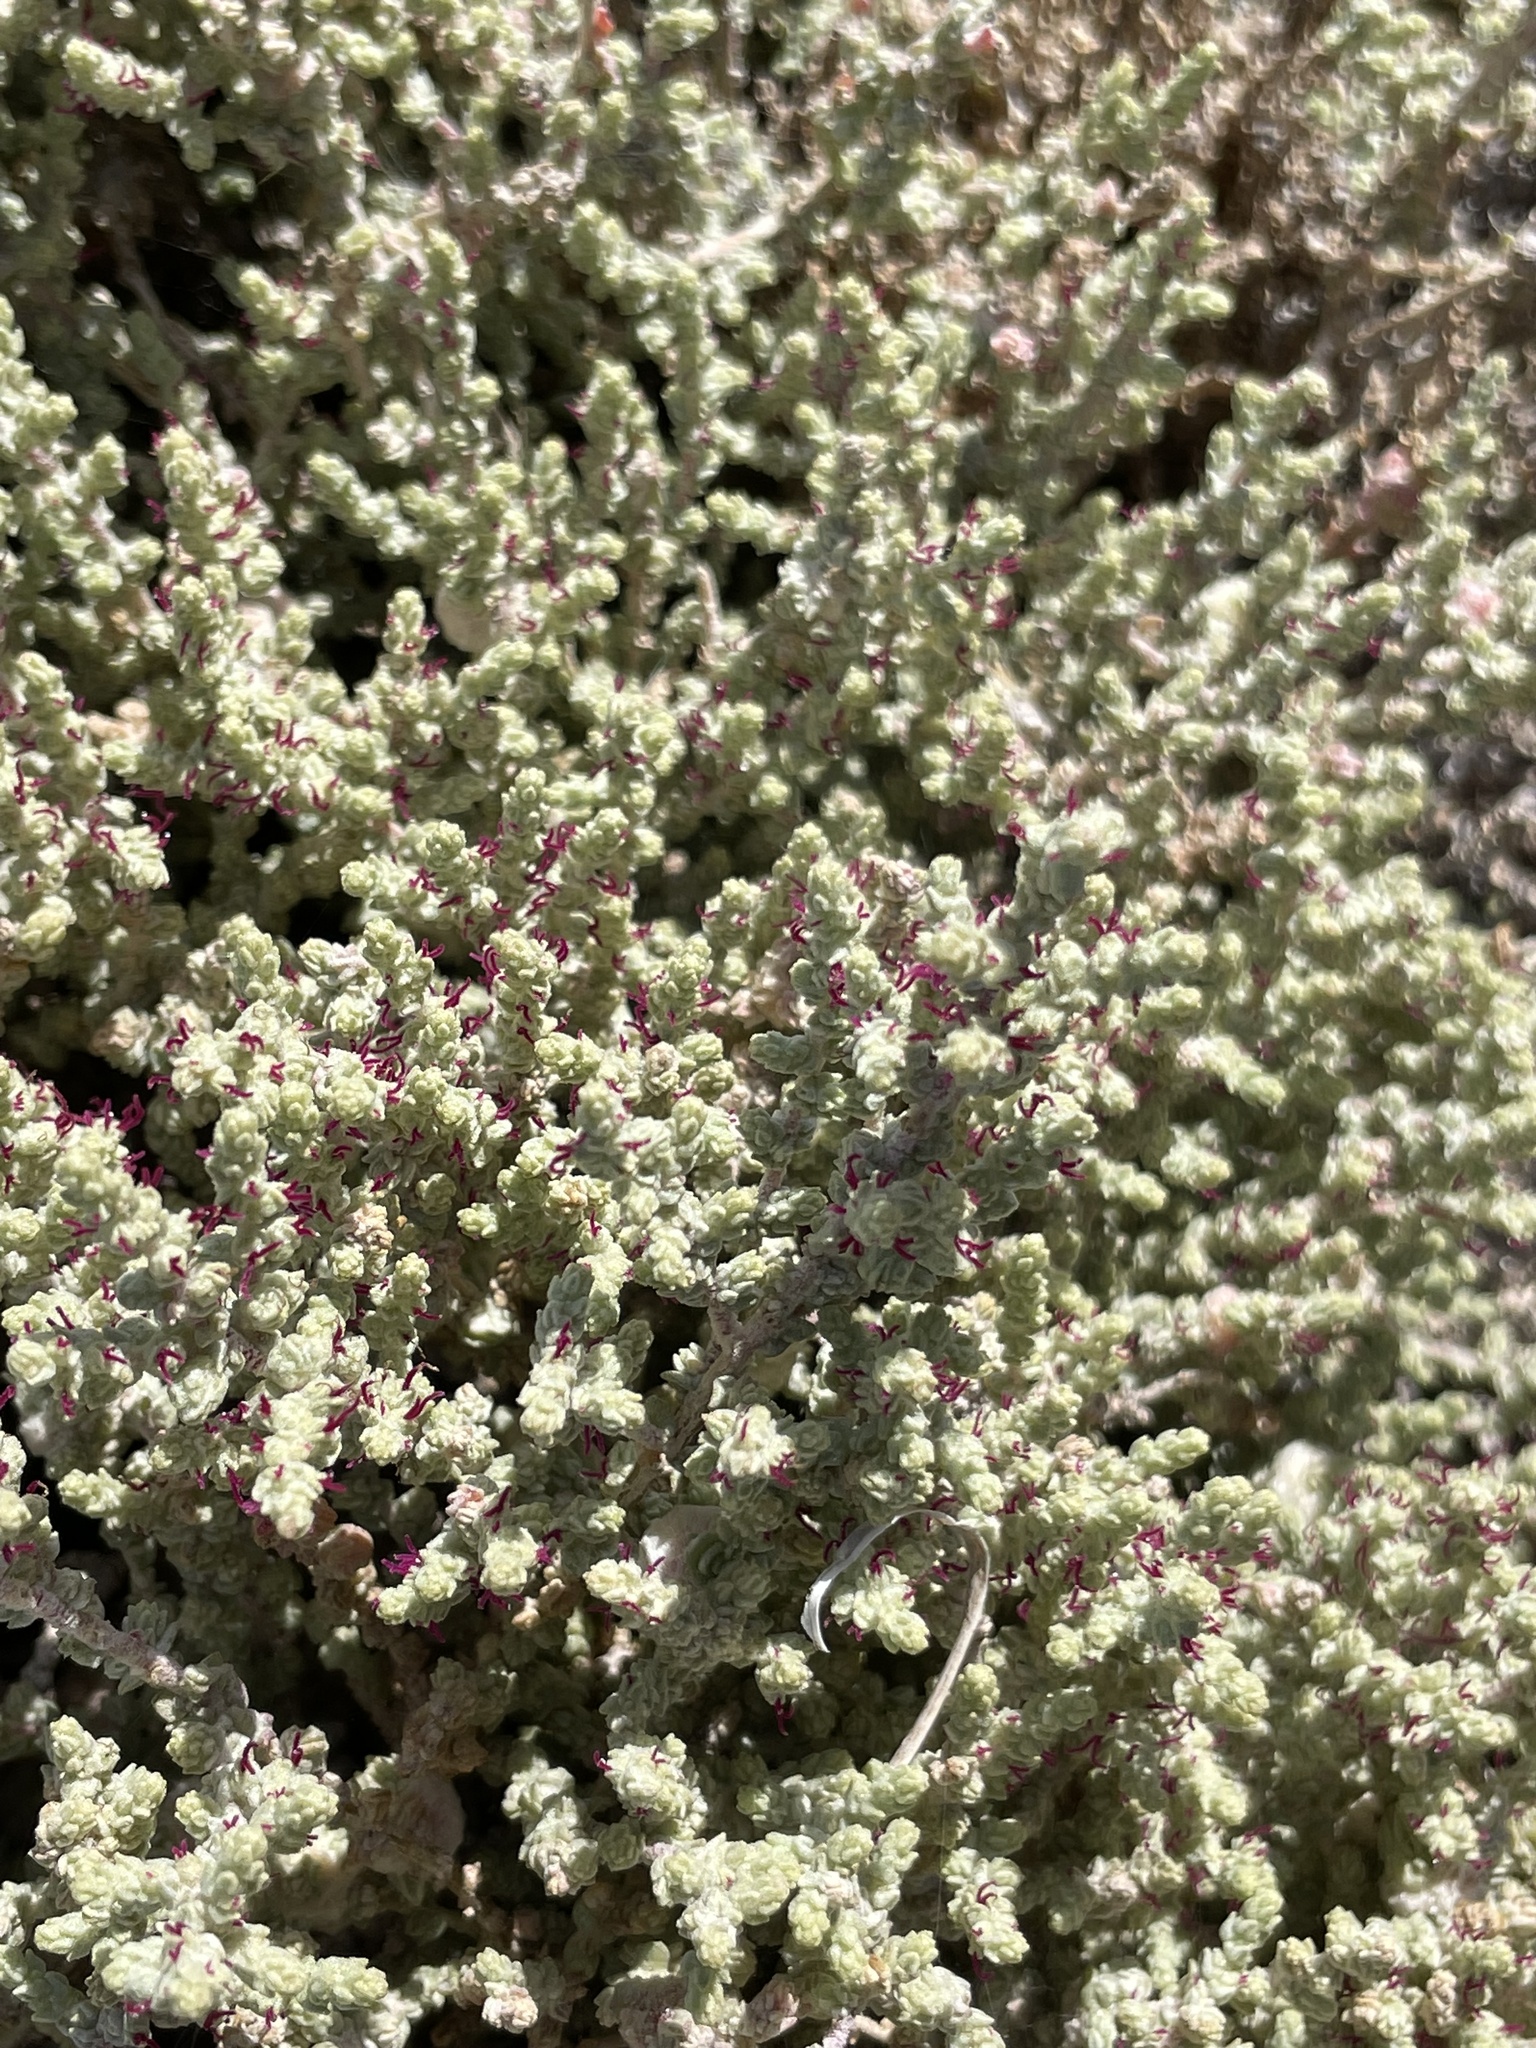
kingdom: Plantae
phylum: Tracheophyta
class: Magnoliopsida
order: Caryophyllales
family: Amaranthaceae
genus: Atriplex
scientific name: Atriplex julacea
